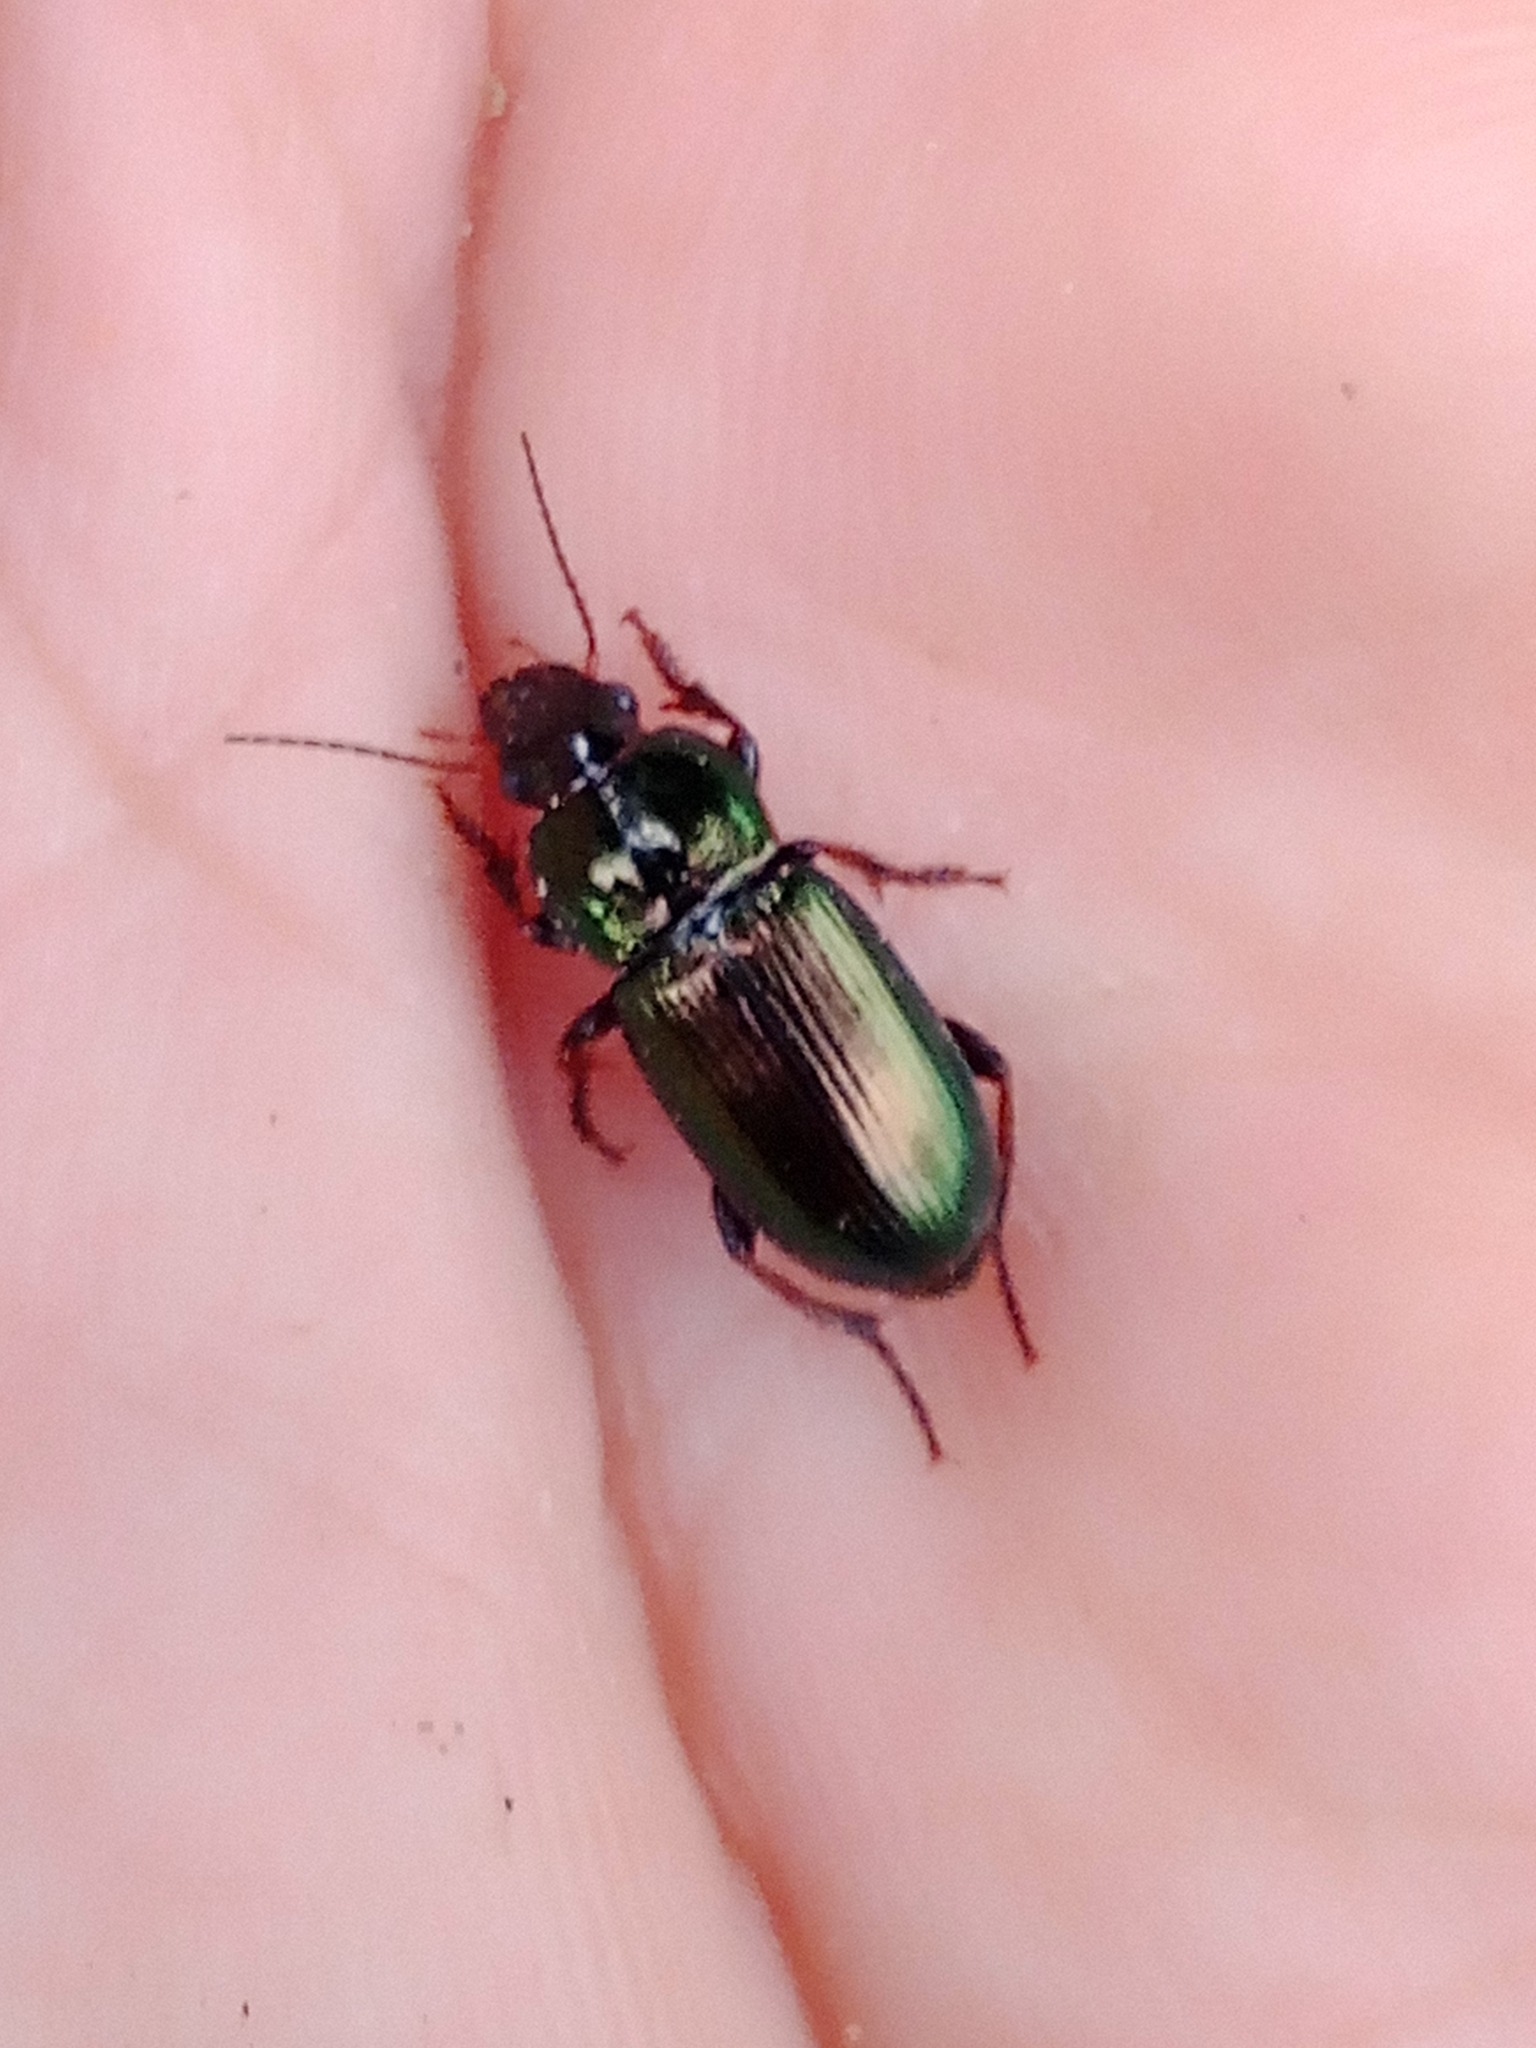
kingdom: Animalia
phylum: Arthropoda
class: Insecta
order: Coleoptera
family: Carabidae
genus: Harpalus
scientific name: Harpalus affinis
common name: Polychrome harp ground beetle
